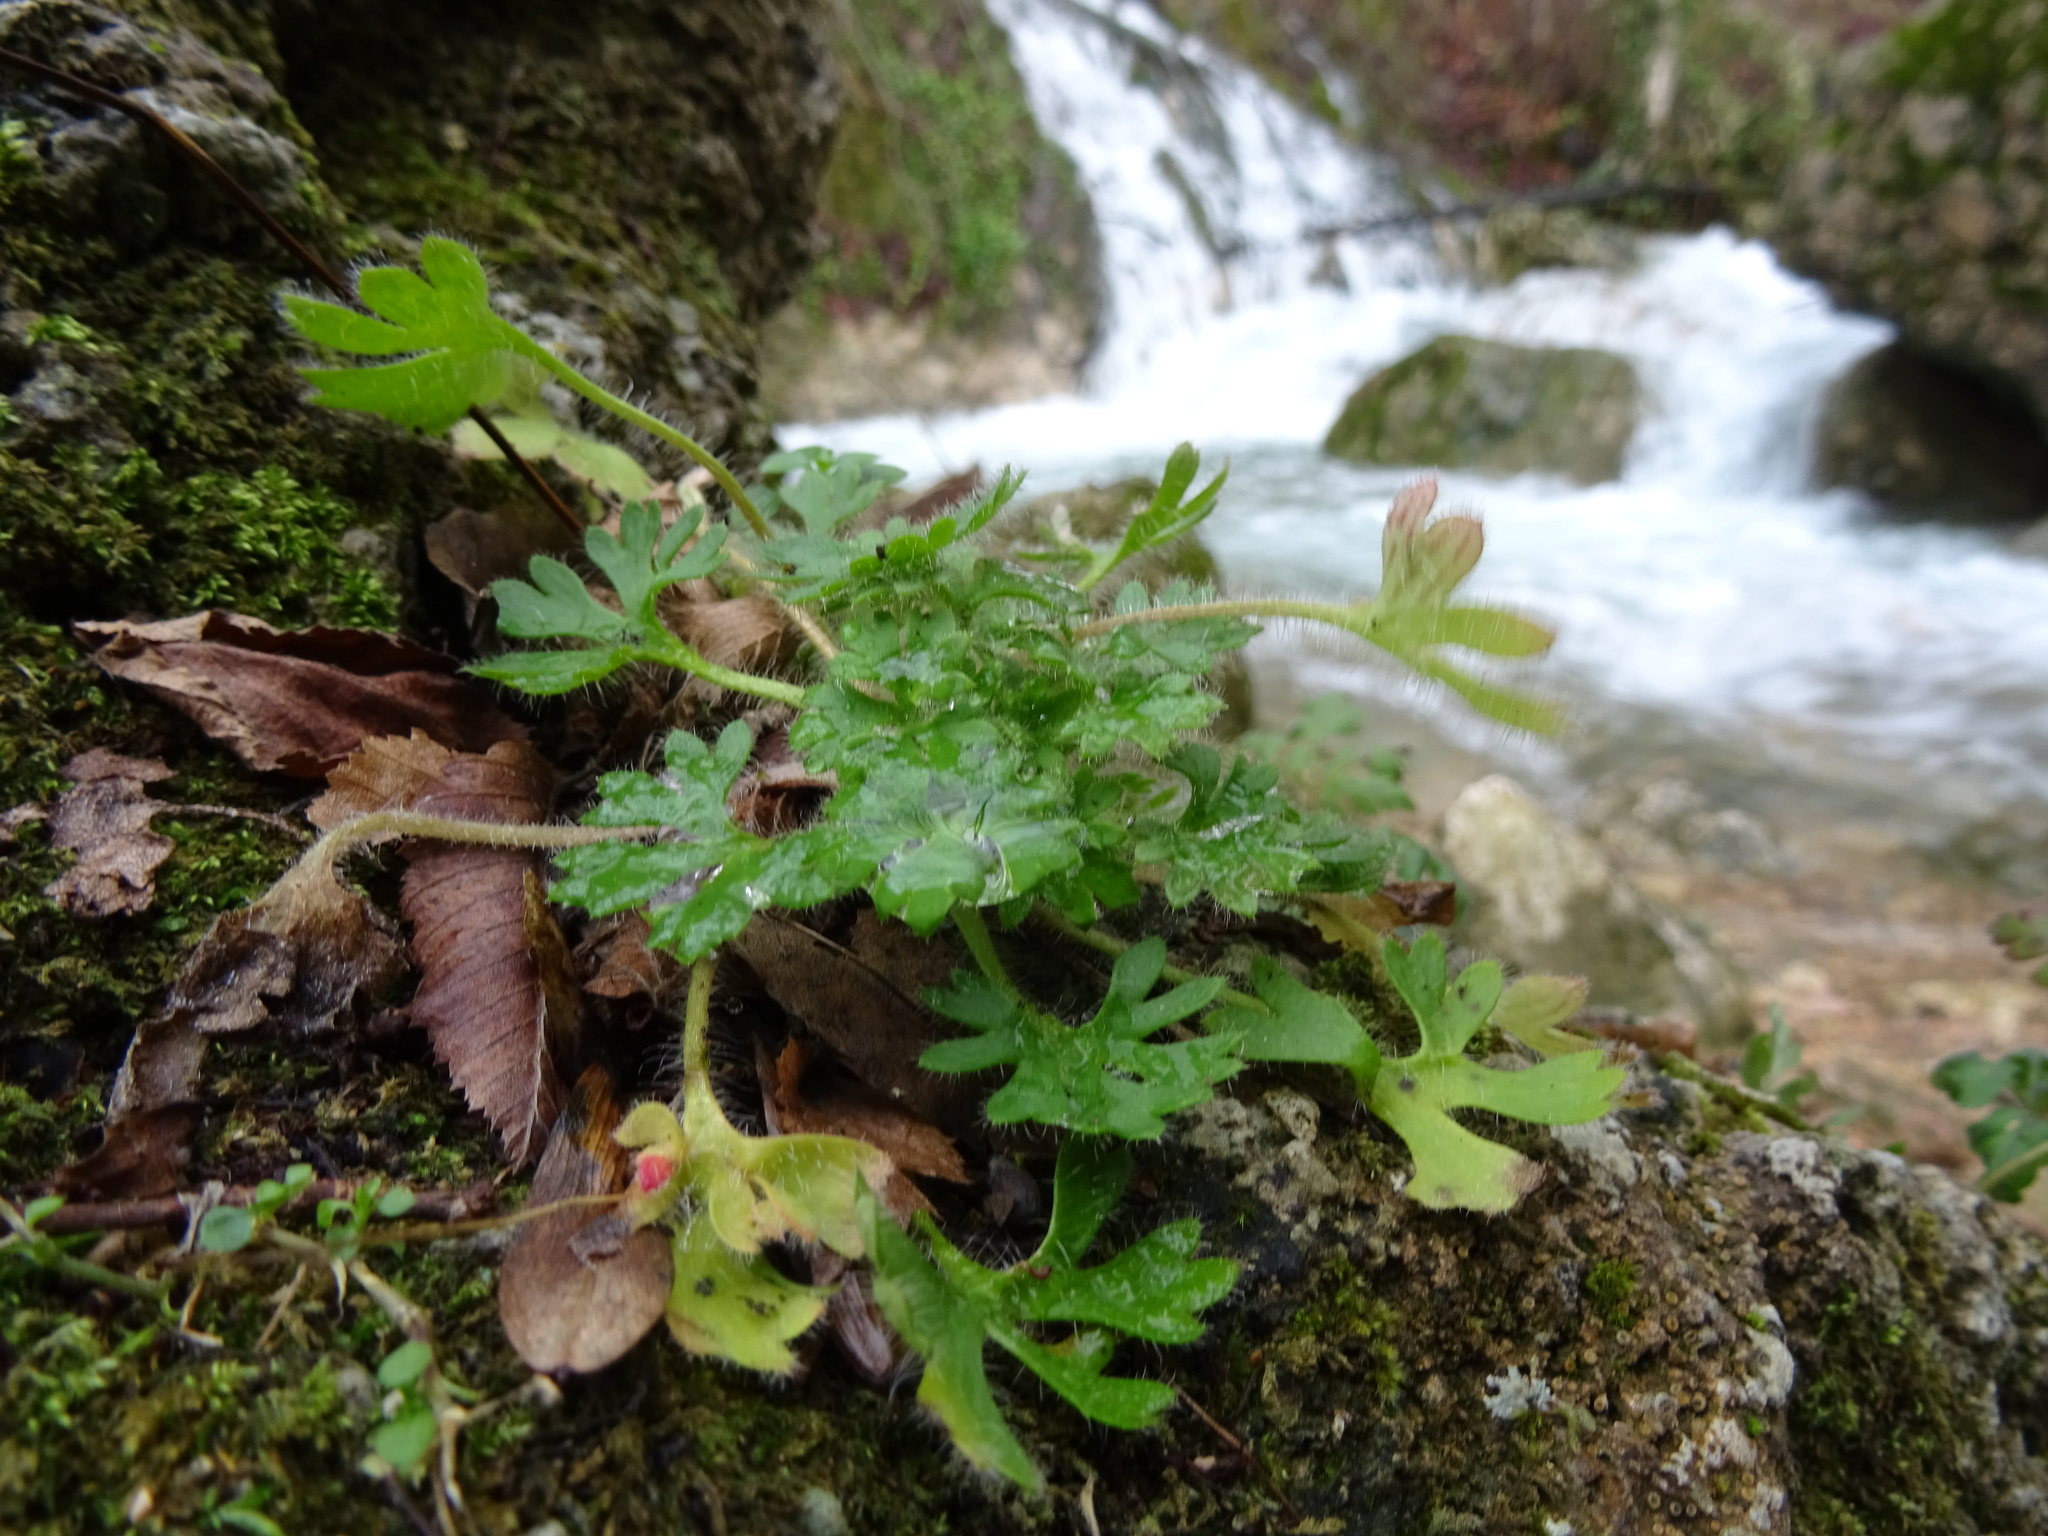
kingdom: Plantae
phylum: Tracheophyta
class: Magnoliopsida
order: Saxifragales
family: Saxifragaceae
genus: Saxifraga
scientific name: Saxifraga irrigua
